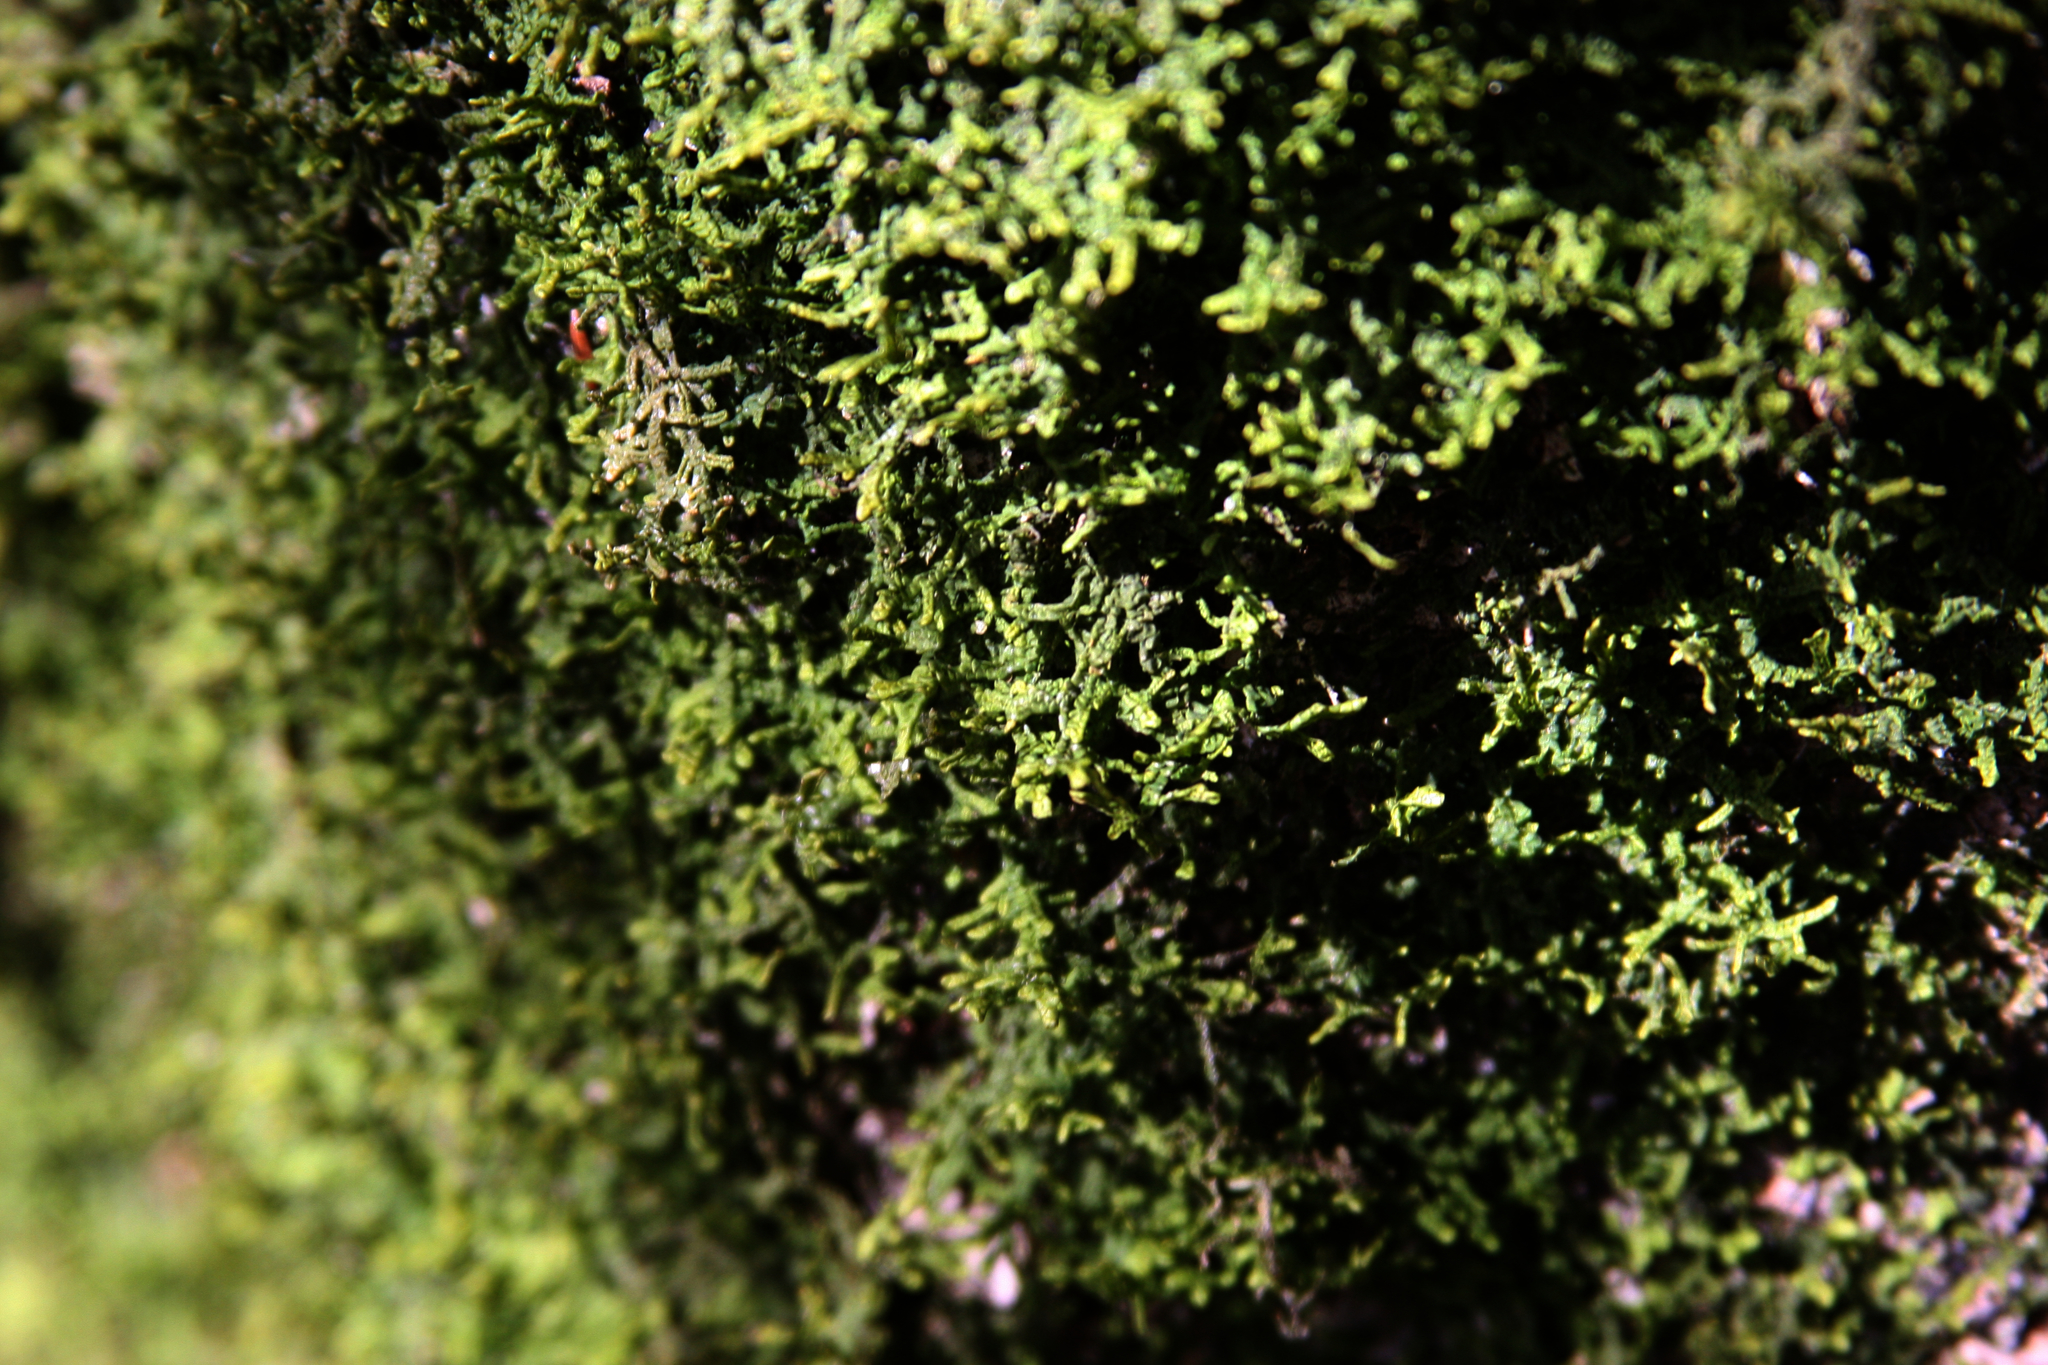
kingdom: Plantae
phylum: Marchantiophyta
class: Jungermanniopsida
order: Porellales
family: Porellaceae
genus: Porella
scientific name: Porella platyphylla
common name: Wall scalewort
